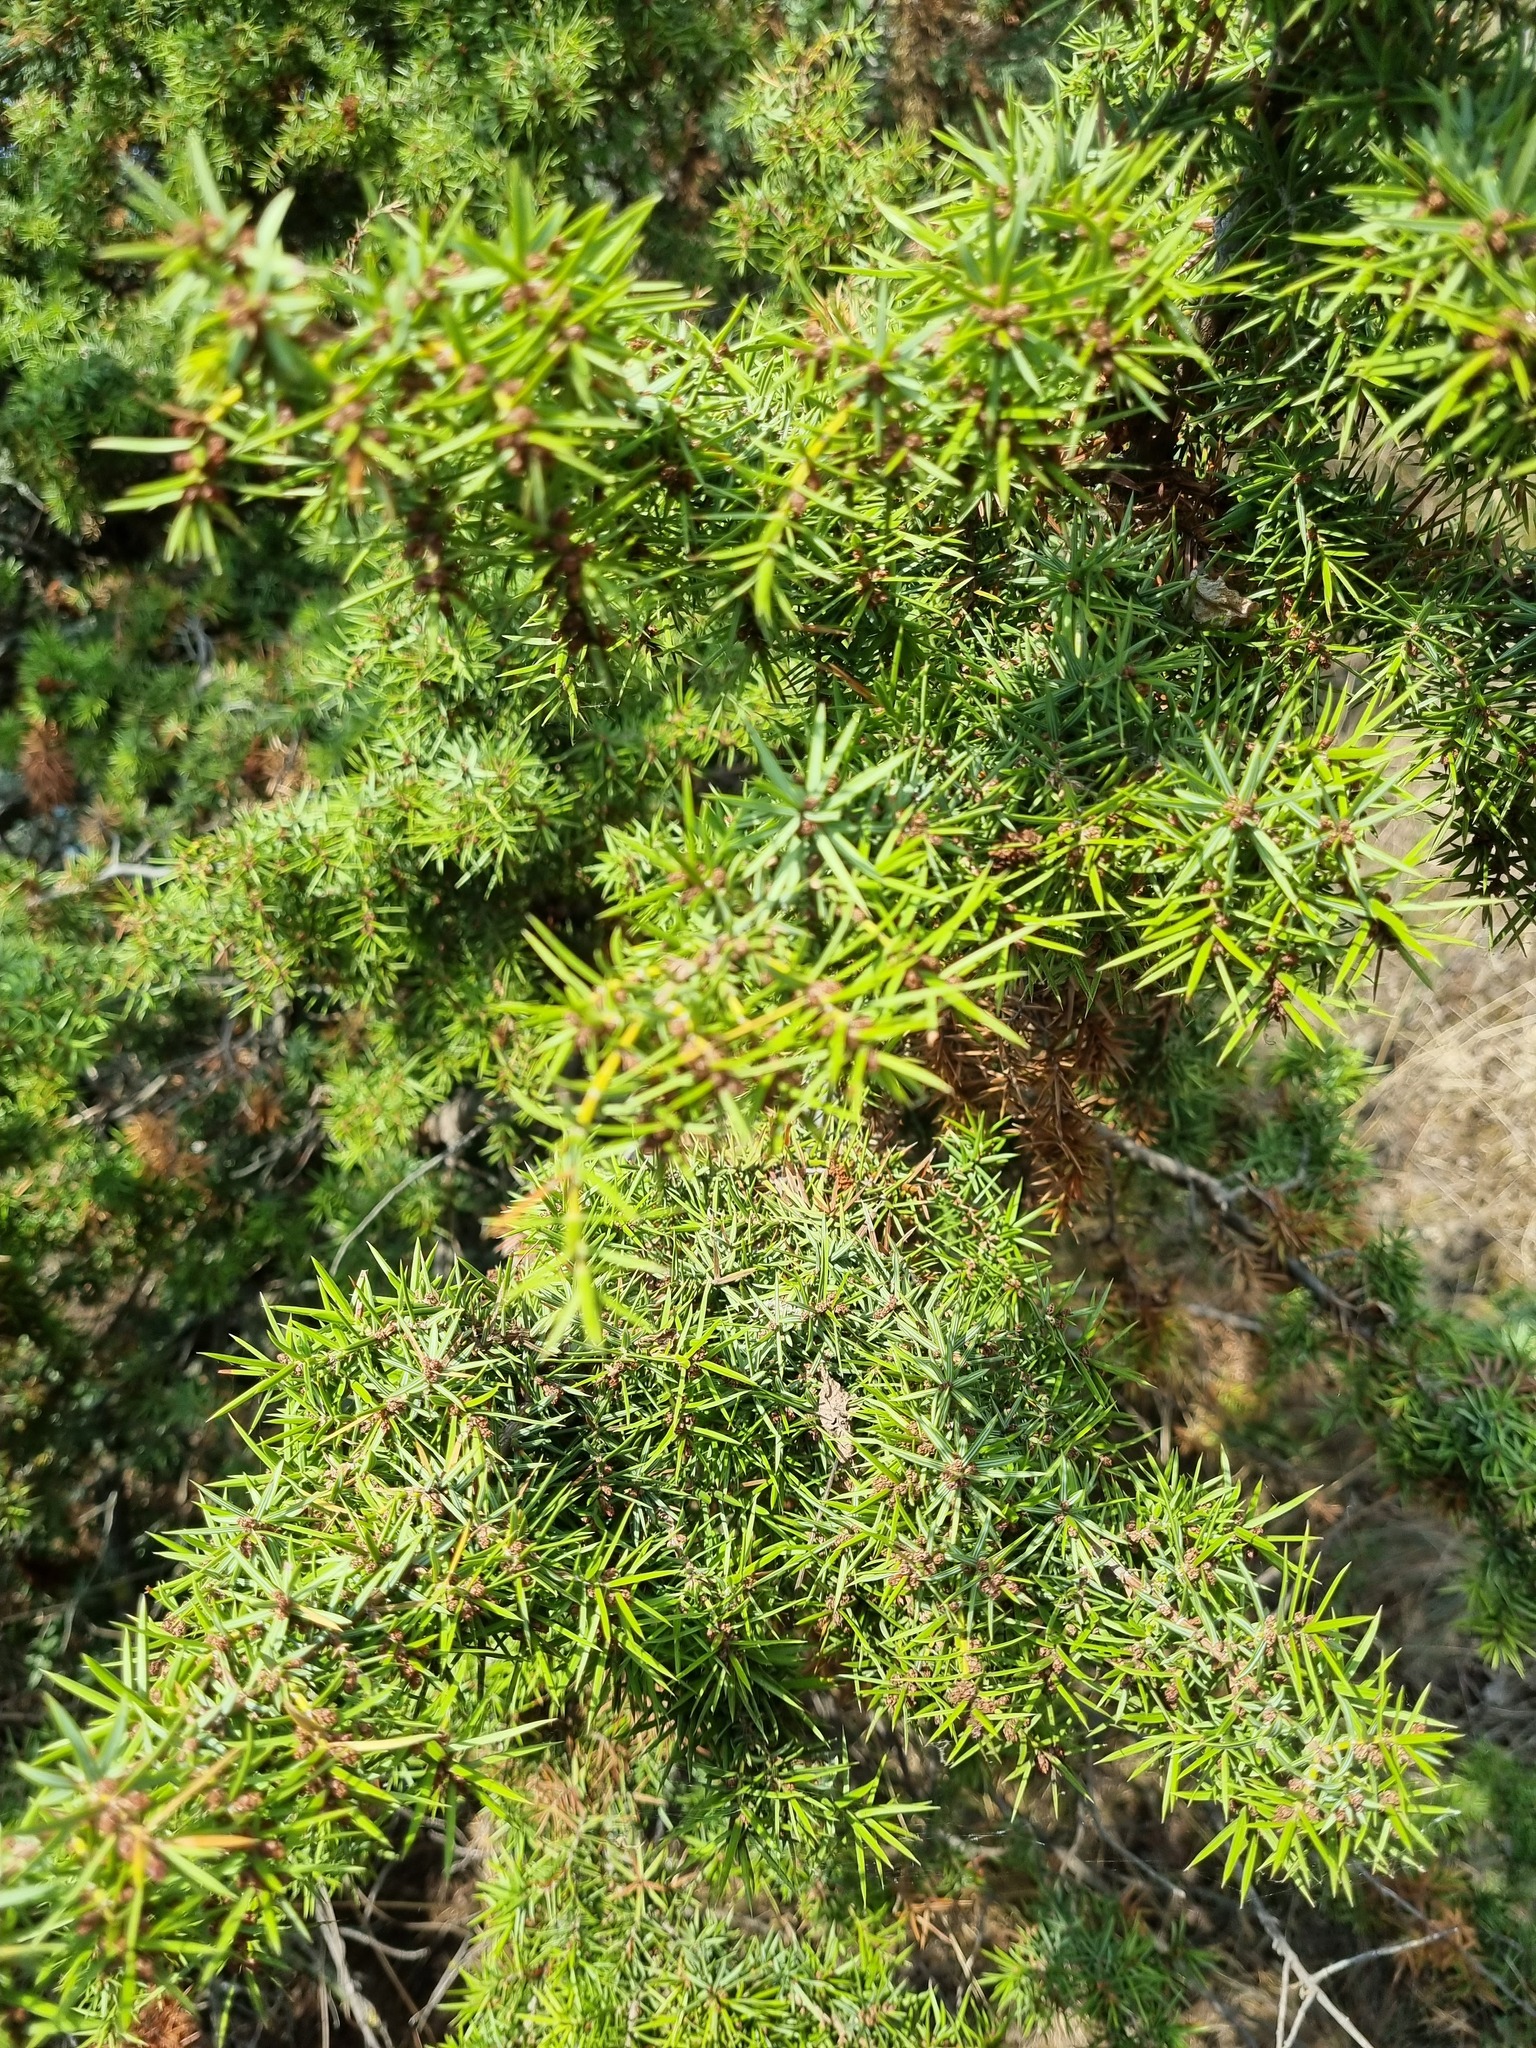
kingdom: Plantae
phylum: Tracheophyta
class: Pinopsida
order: Pinales
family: Cupressaceae
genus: Juniperus
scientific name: Juniperus oxycedrus
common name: Prickly juniper
